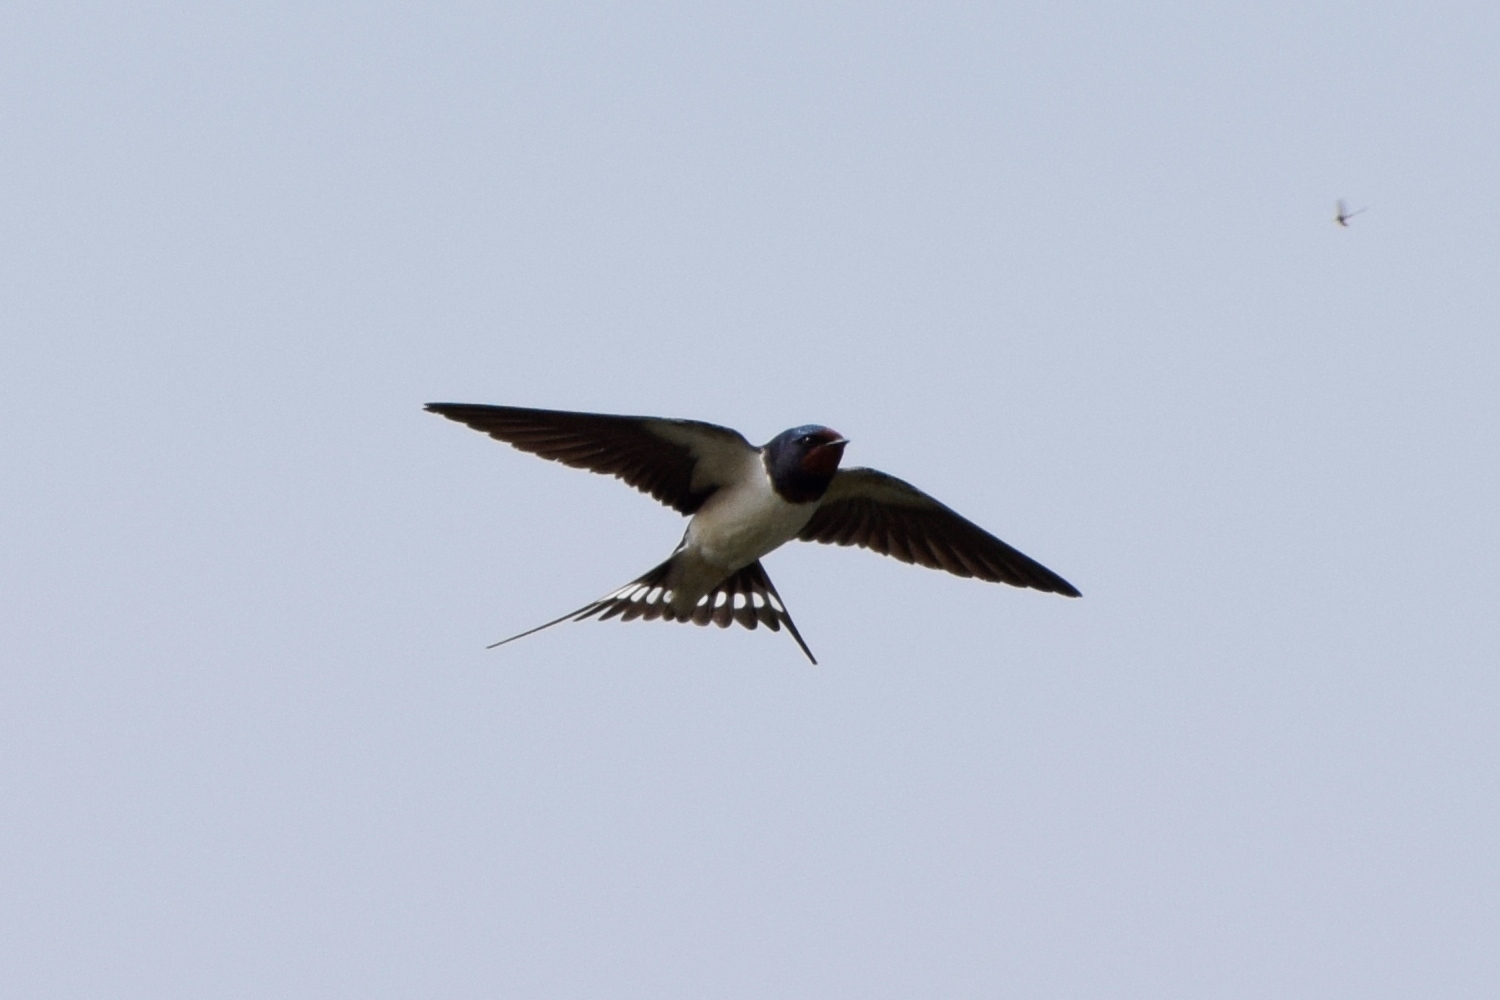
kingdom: Animalia
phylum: Chordata
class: Aves
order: Passeriformes
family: Hirundinidae
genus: Hirundo
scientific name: Hirundo rustica
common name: Barn swallow
